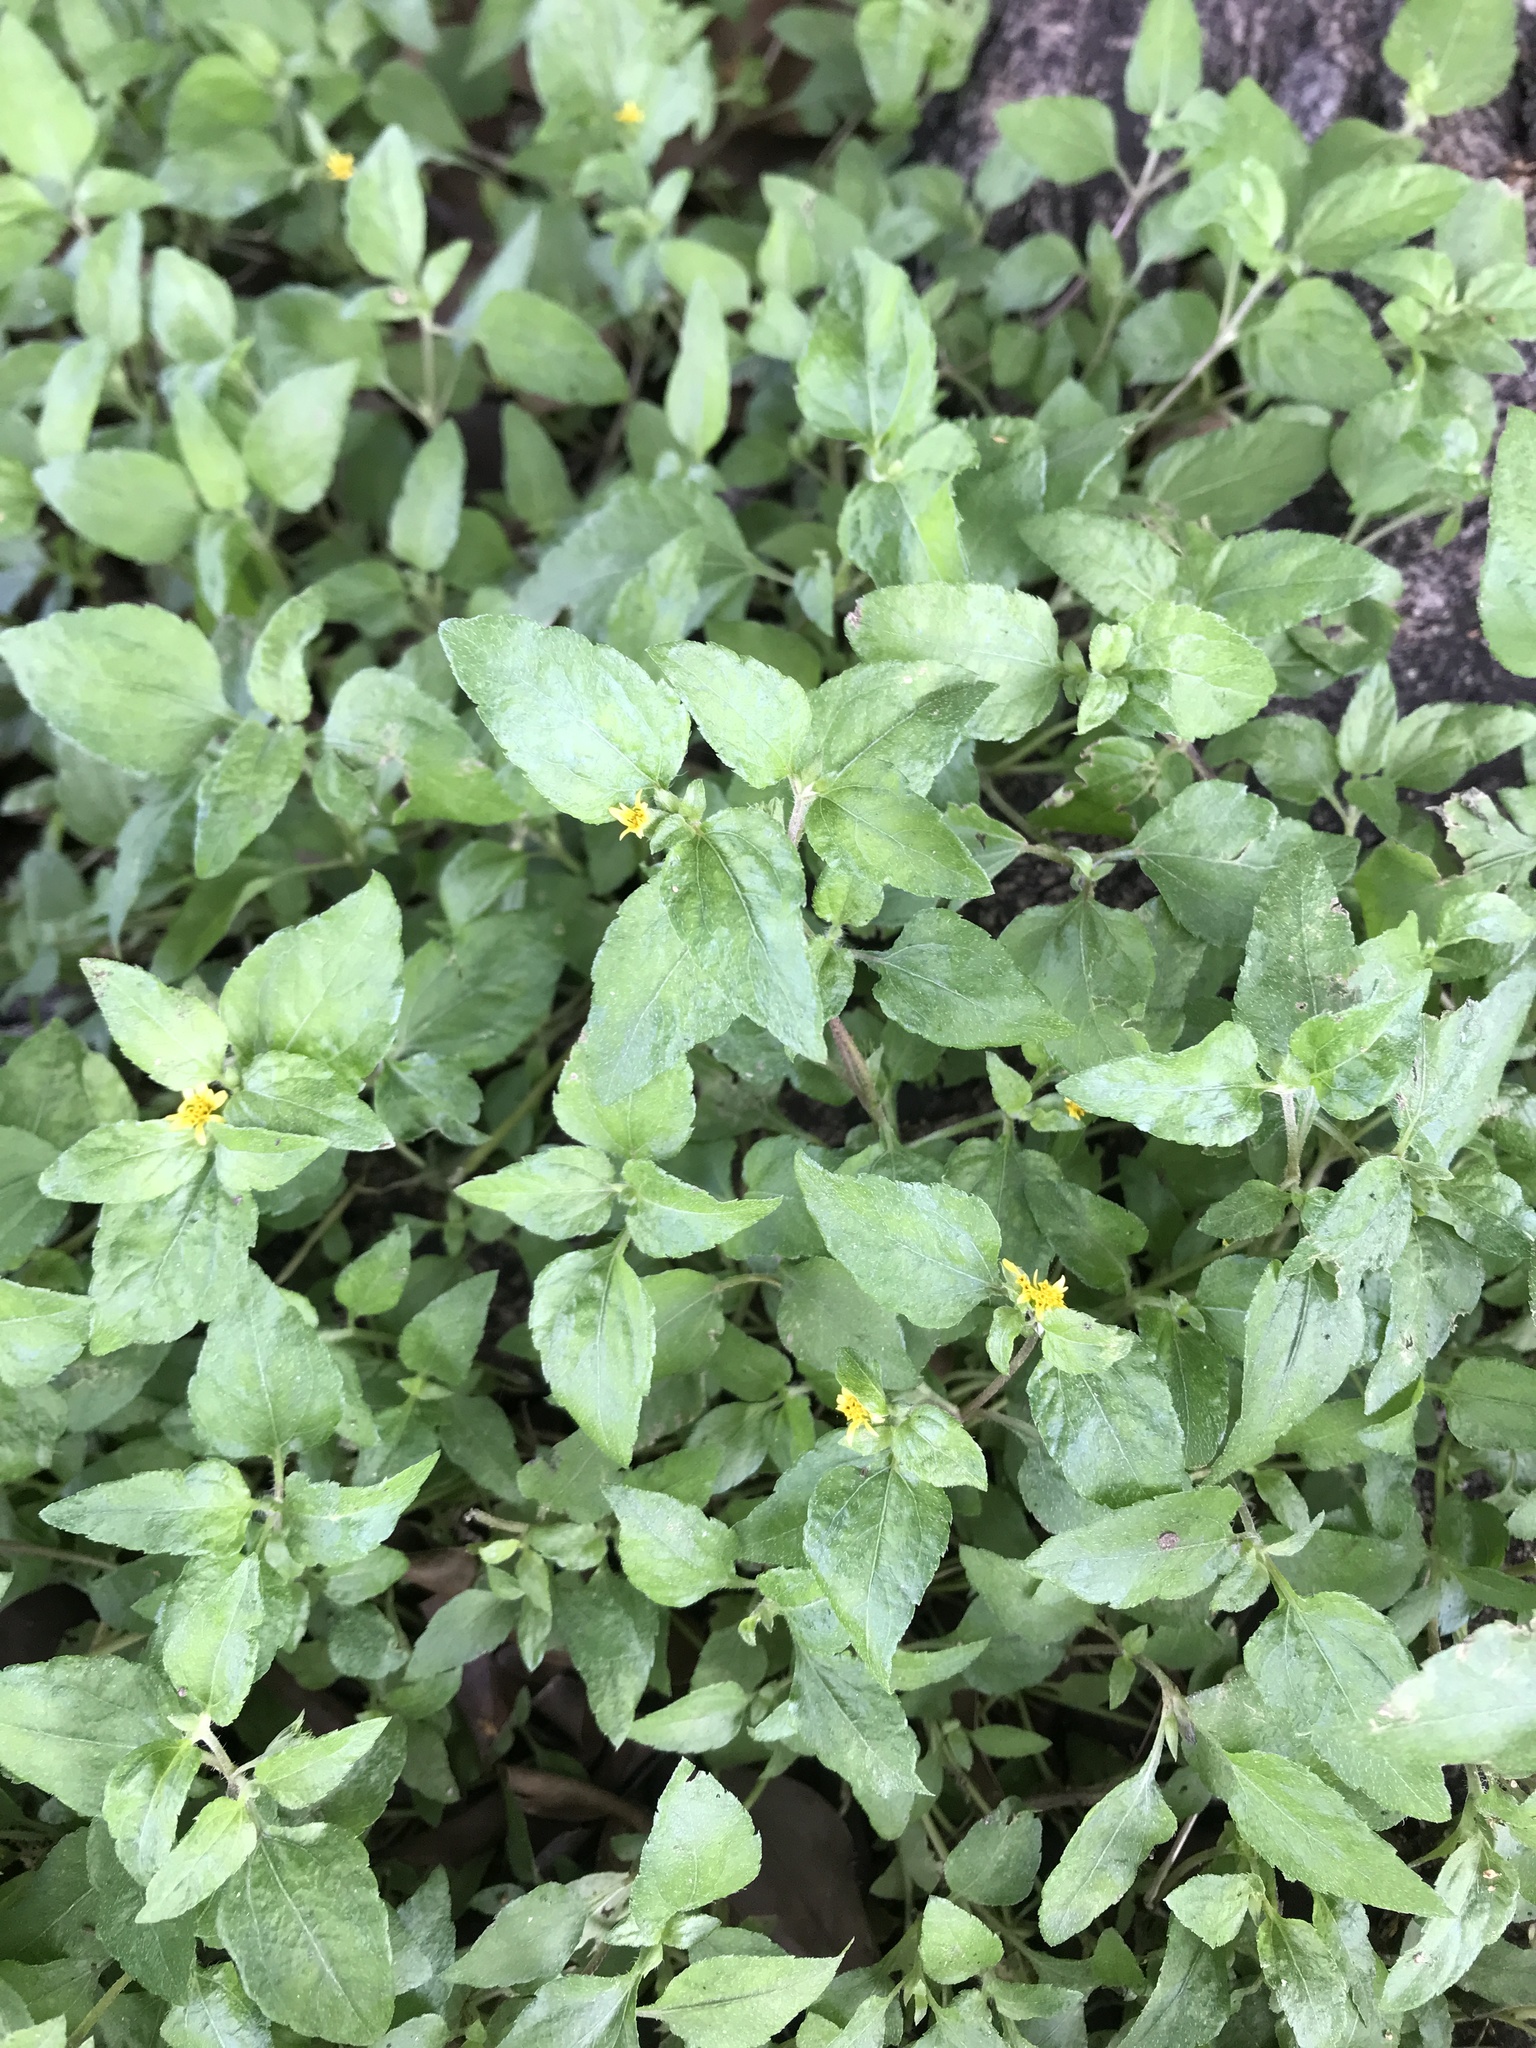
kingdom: Plantae
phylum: Tracheophyta
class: Magnoliopsida
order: Asterales
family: Asteraceae
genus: Calyptocarpus
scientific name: Calyptocarpus vialis
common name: Straggler daisy
